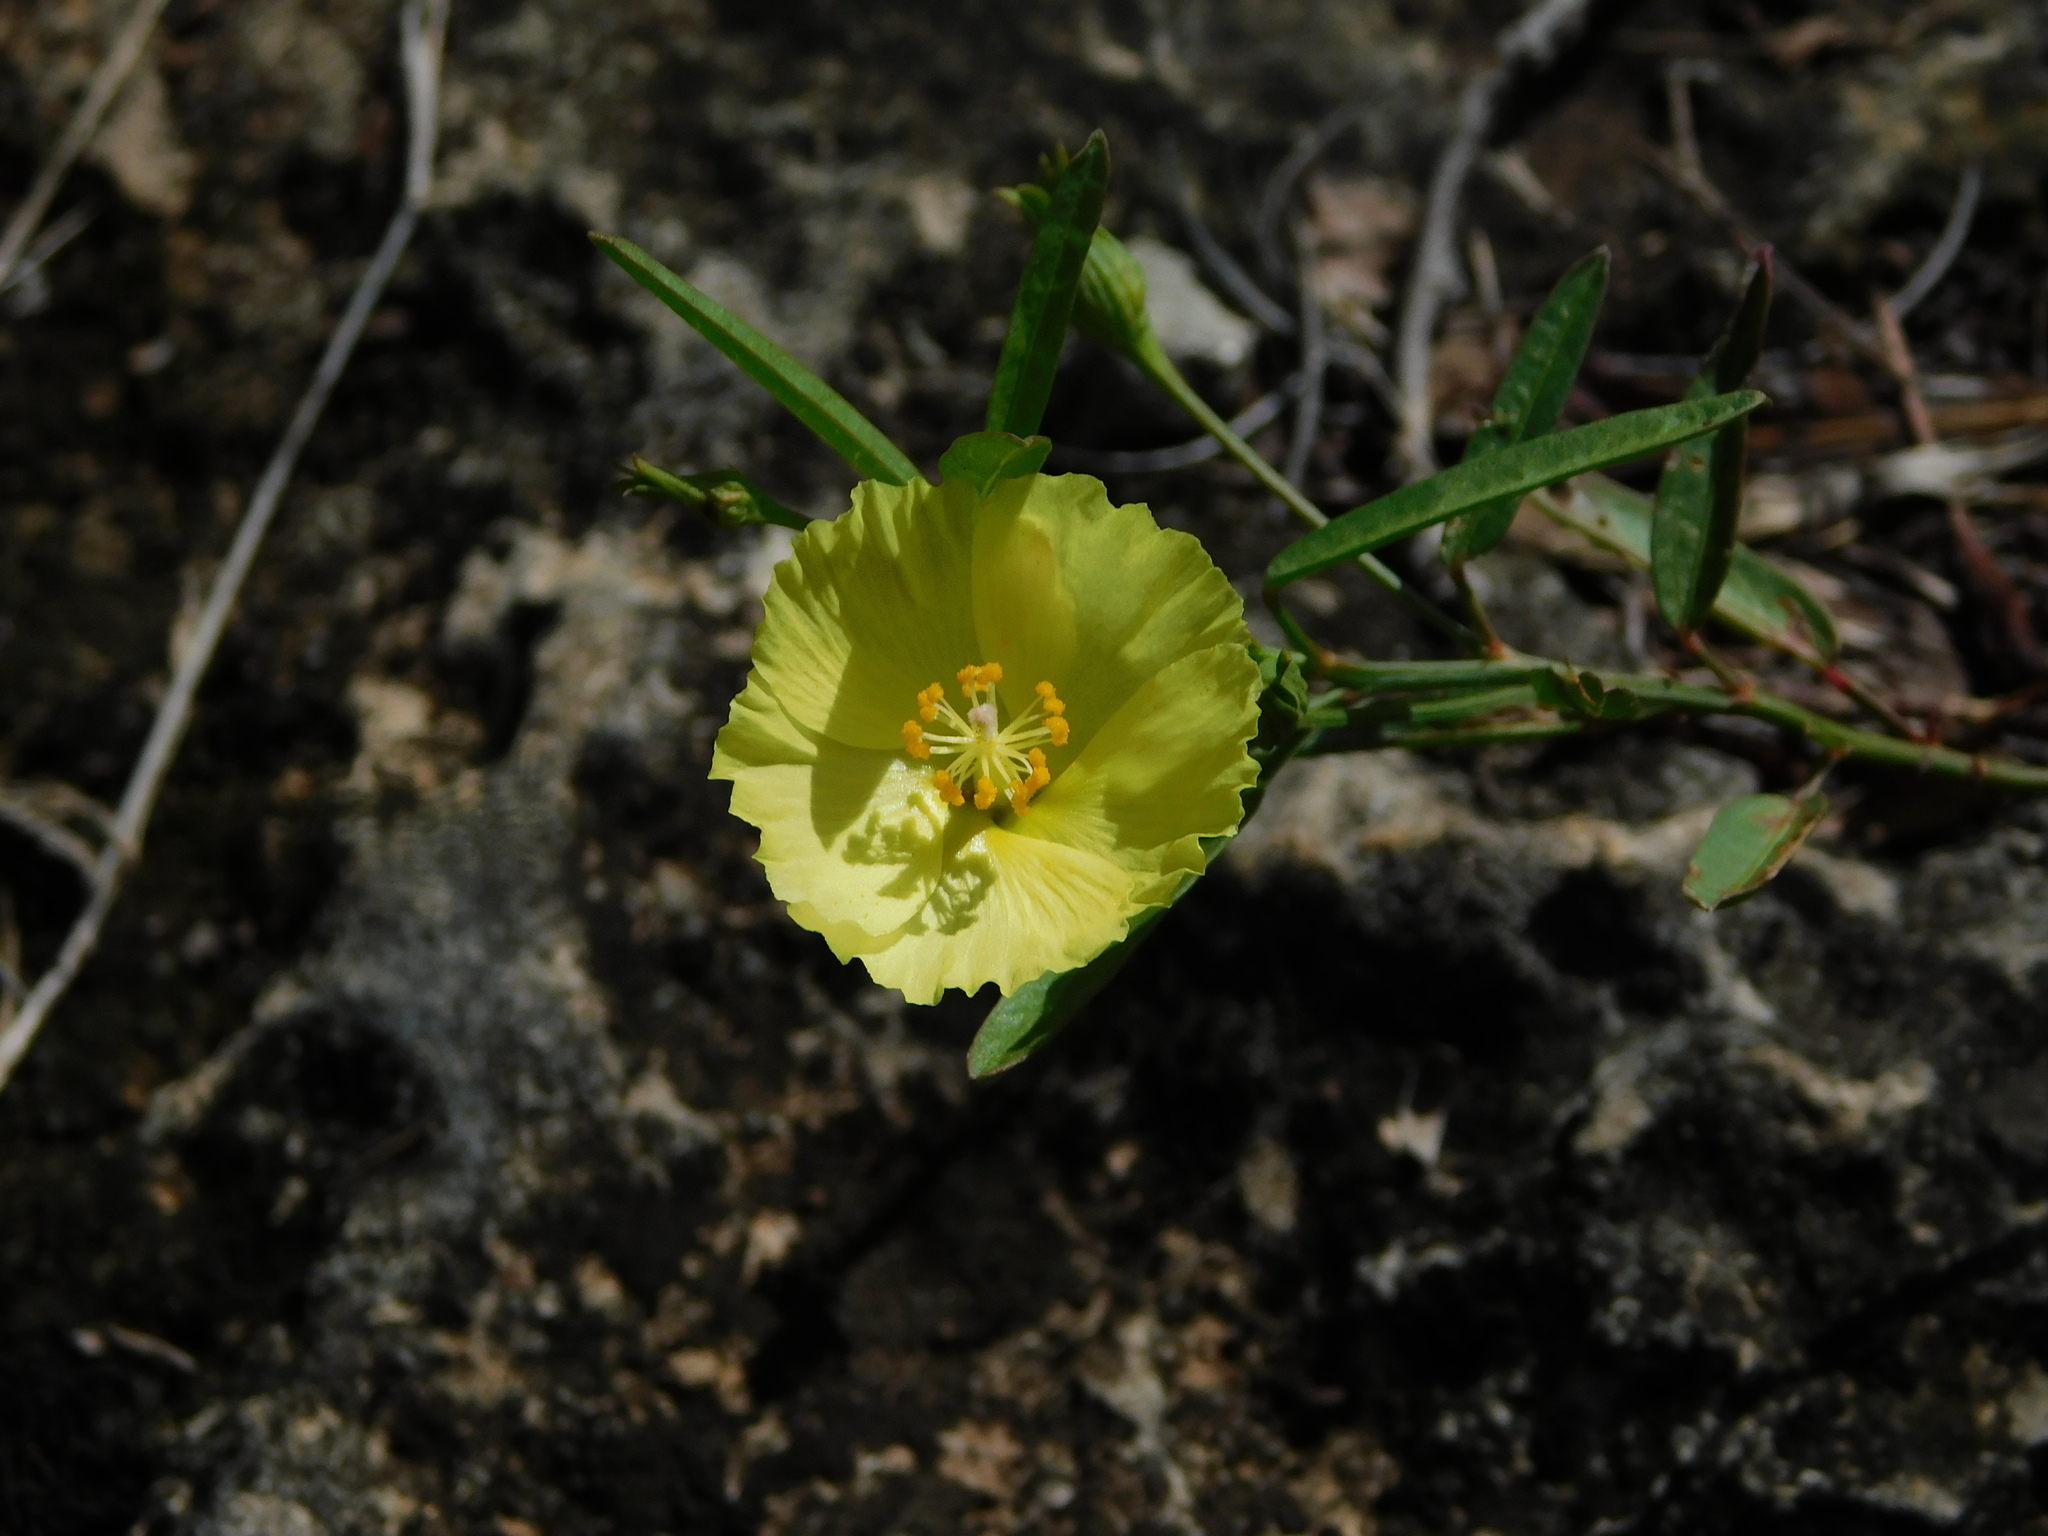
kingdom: Plantae
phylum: Tracheophyta
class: Magnoliopsida
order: Malvales
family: Malvaceae
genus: Cienfuegosia
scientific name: Cienfuegosia yucatanensis
